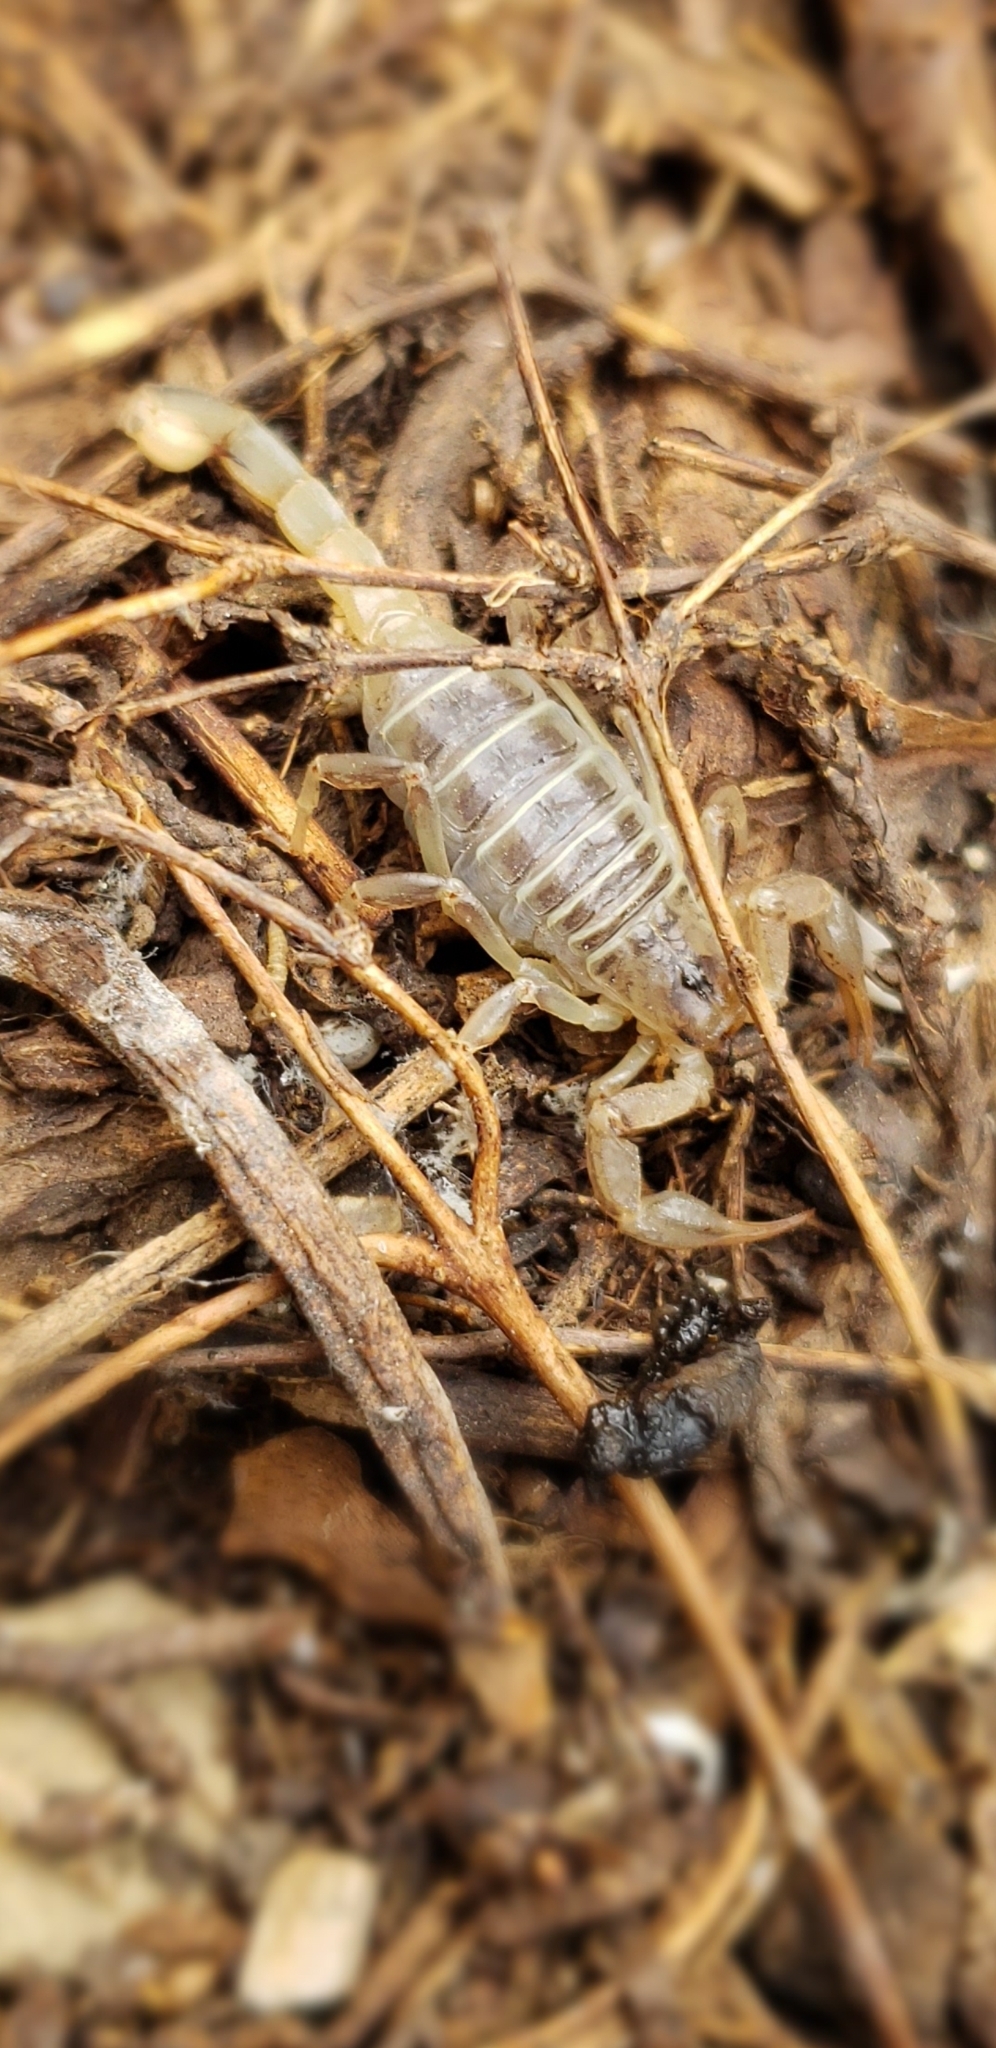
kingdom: Animalia
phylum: Arthropoda
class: Arachnida
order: Scorpiones
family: Vaejovidae
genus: Paruroctonus
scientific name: Paruroctonus boreus
